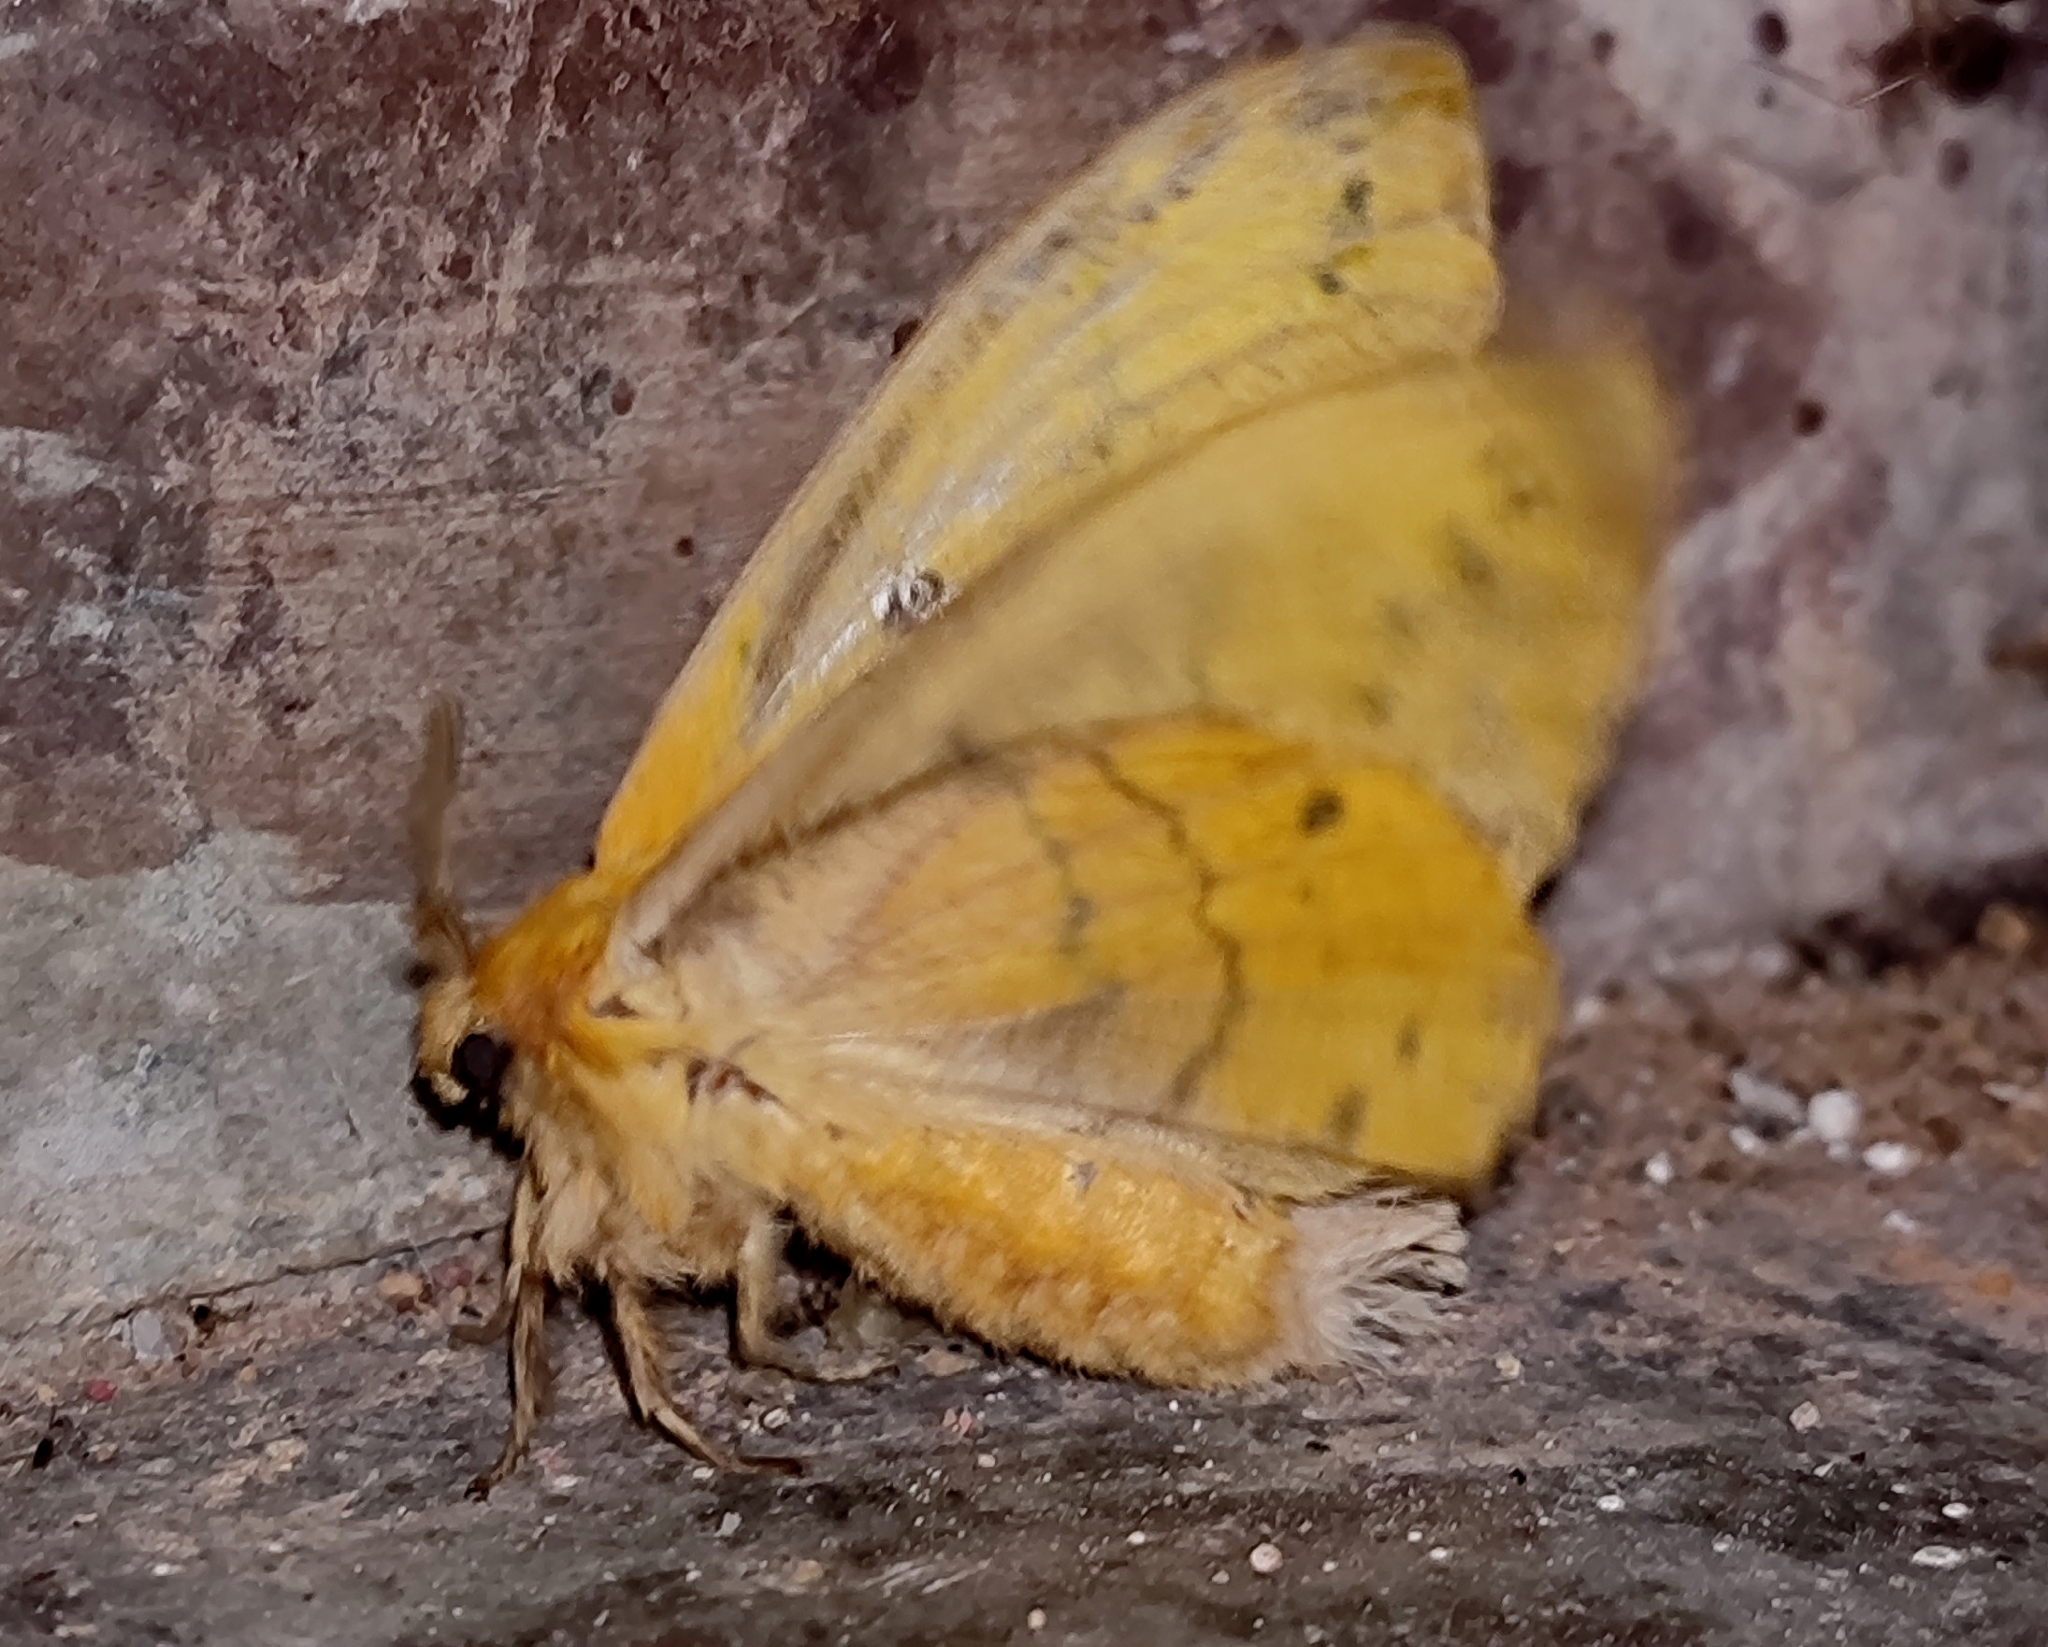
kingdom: Animalia
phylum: Arthropoda
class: Insecta
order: Lepidoptera
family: Lasiocampidae
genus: Trabala
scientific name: Trabala vishnou
